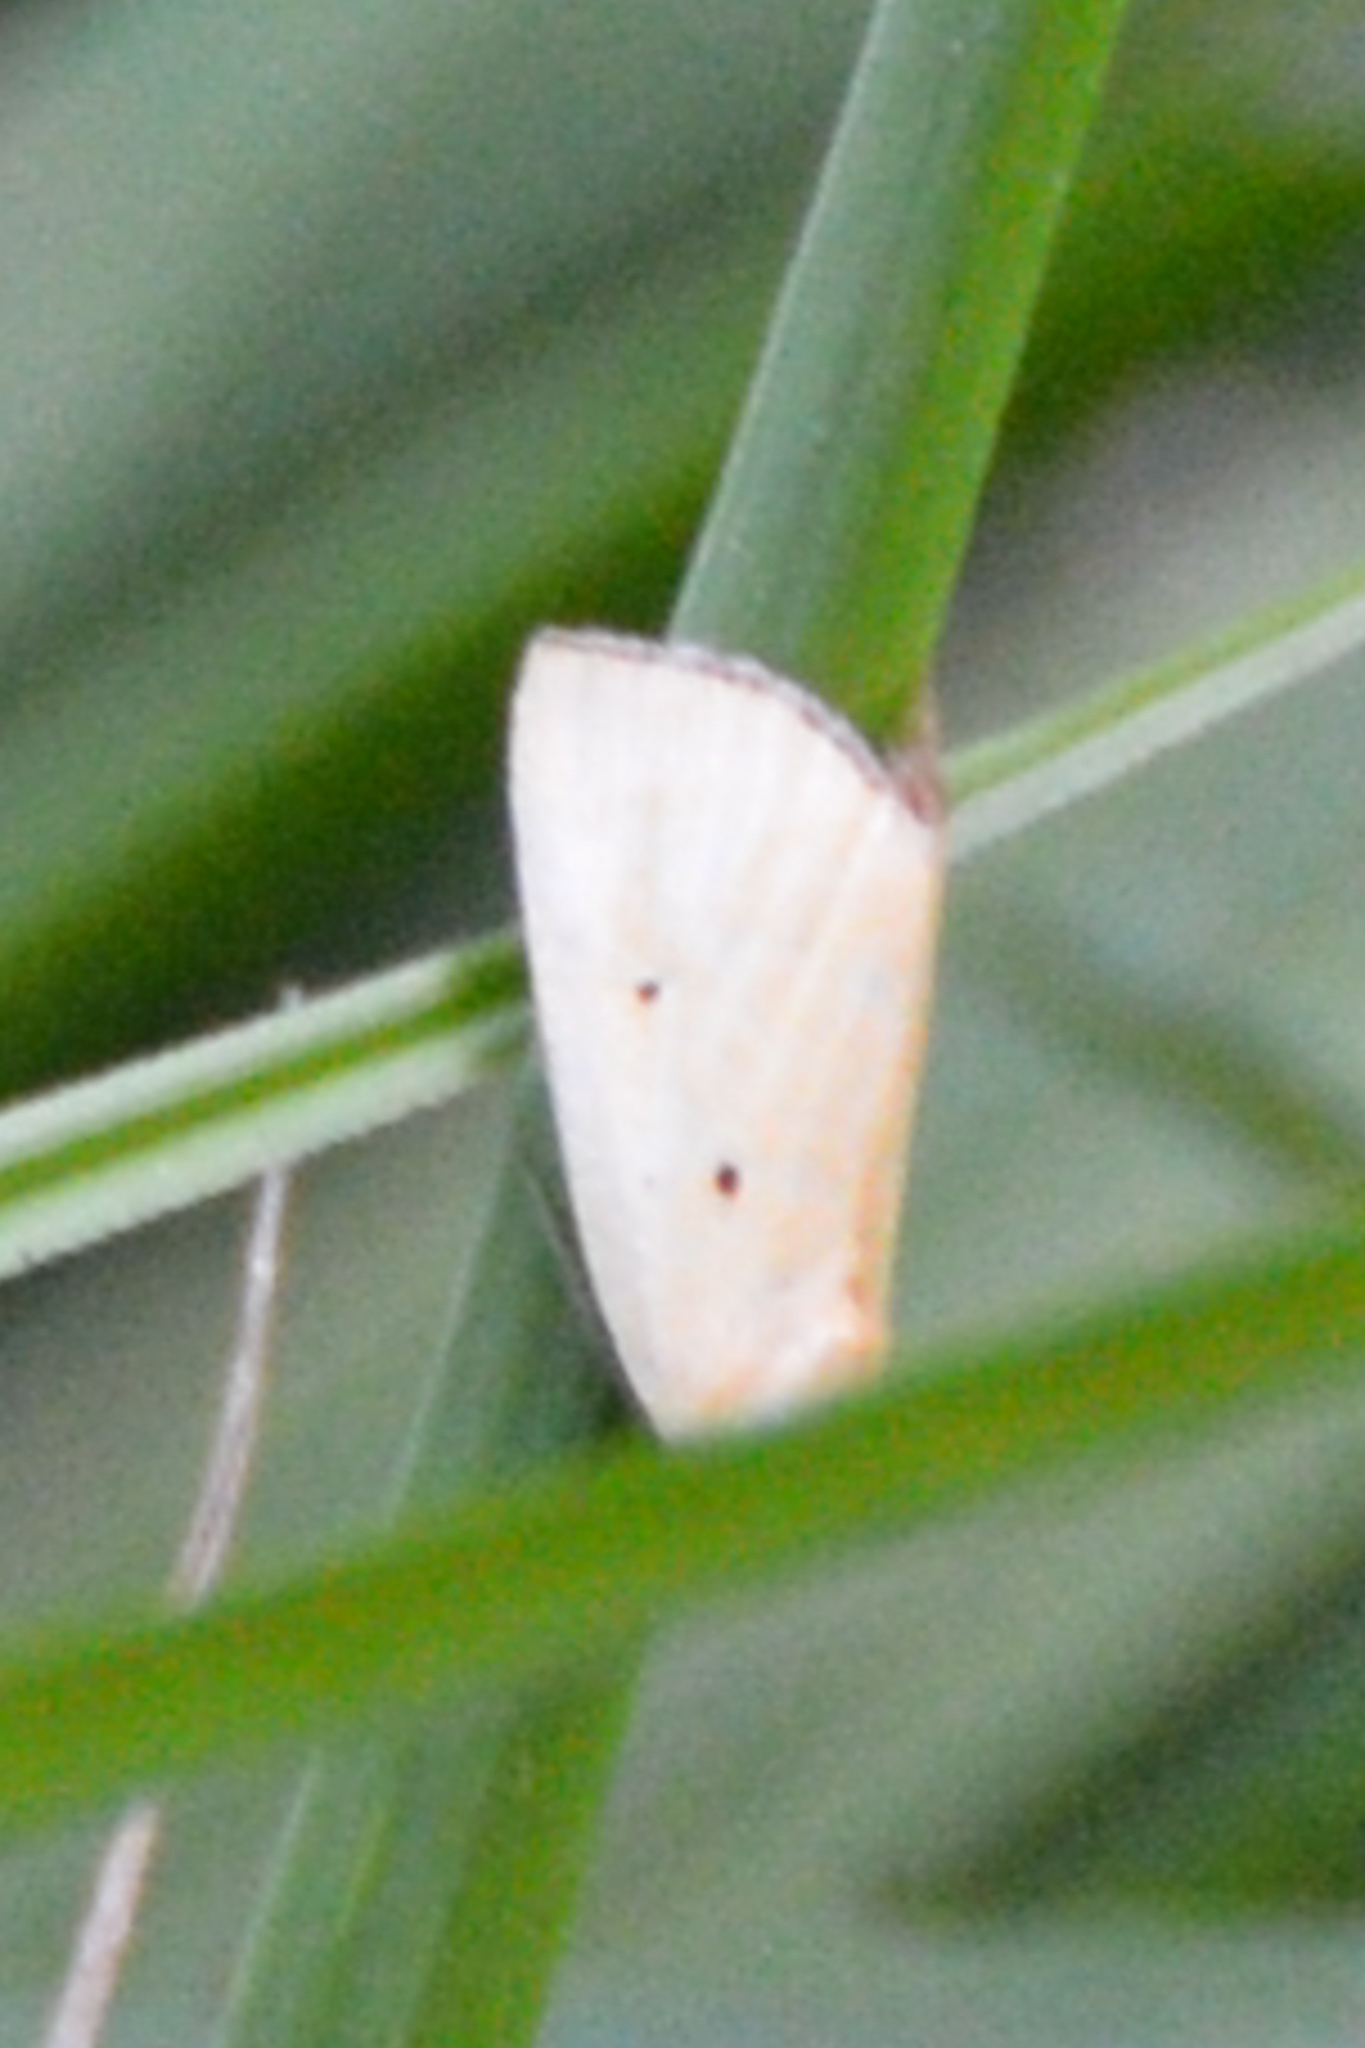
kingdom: Animalia
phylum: Arthropoda
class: Insecta
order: Lepidoptera
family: Noctuidae
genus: Marimatha
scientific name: Marimatha nigrofimbria
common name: Black-bordered lemon moth
